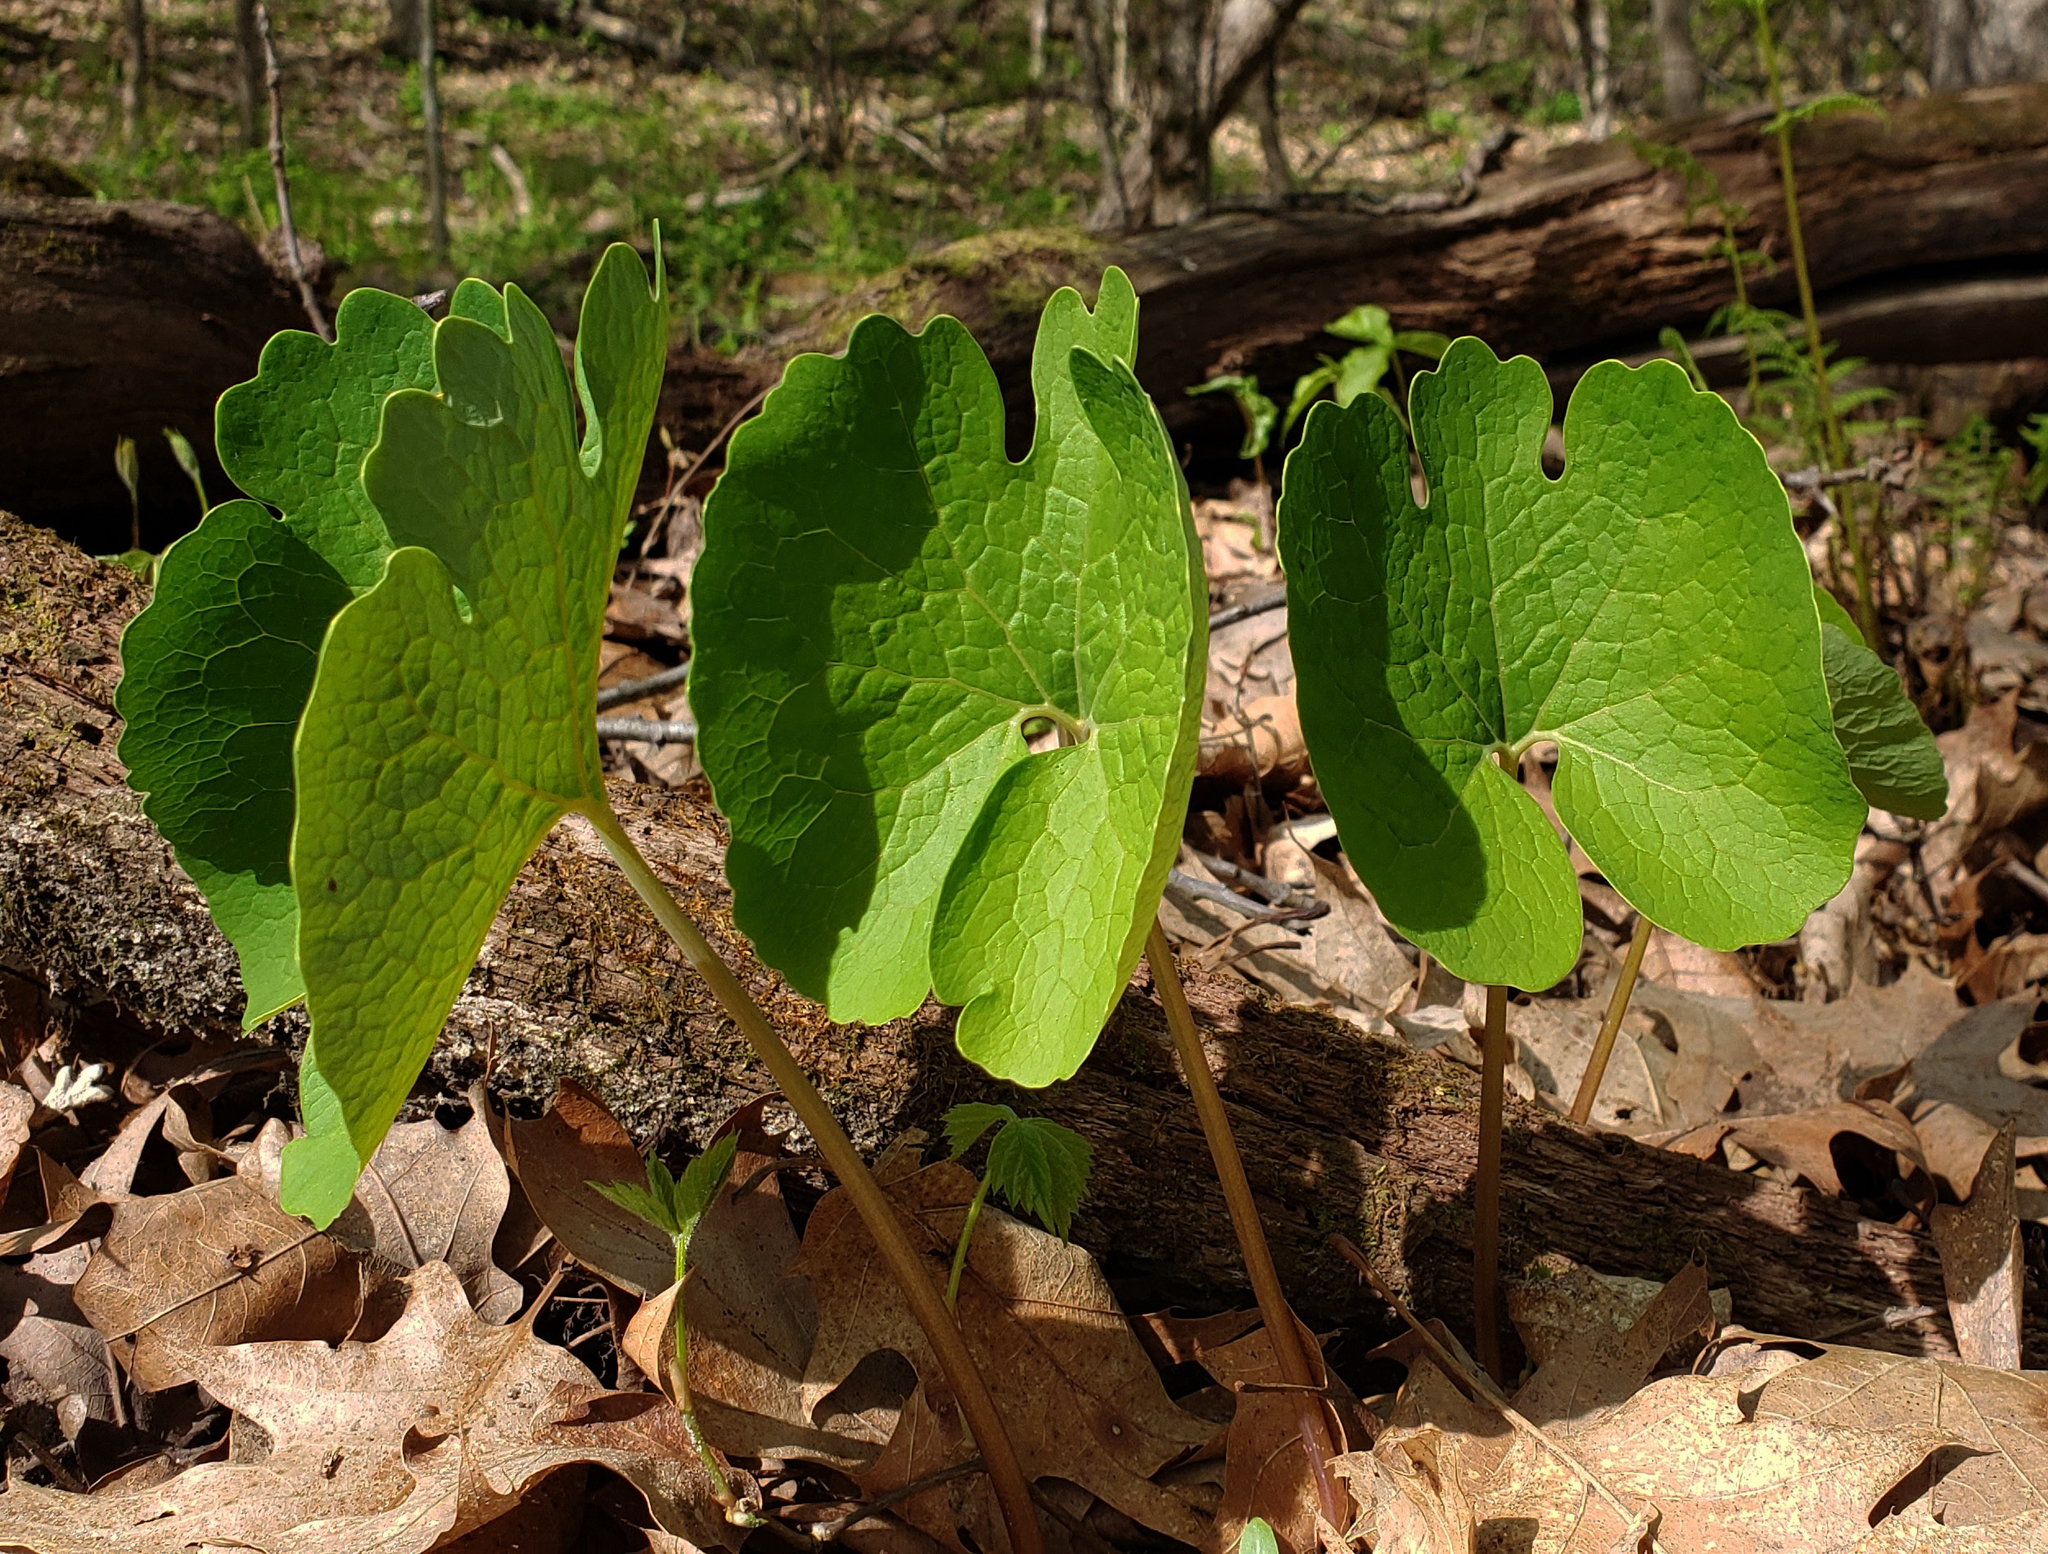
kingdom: Plantae
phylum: Tracheophyta
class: Magnoliopsida
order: Ranunculales
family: Papaveraceae
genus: Sanguinaria
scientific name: Sanguinaria canadensis
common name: Bloodroot
